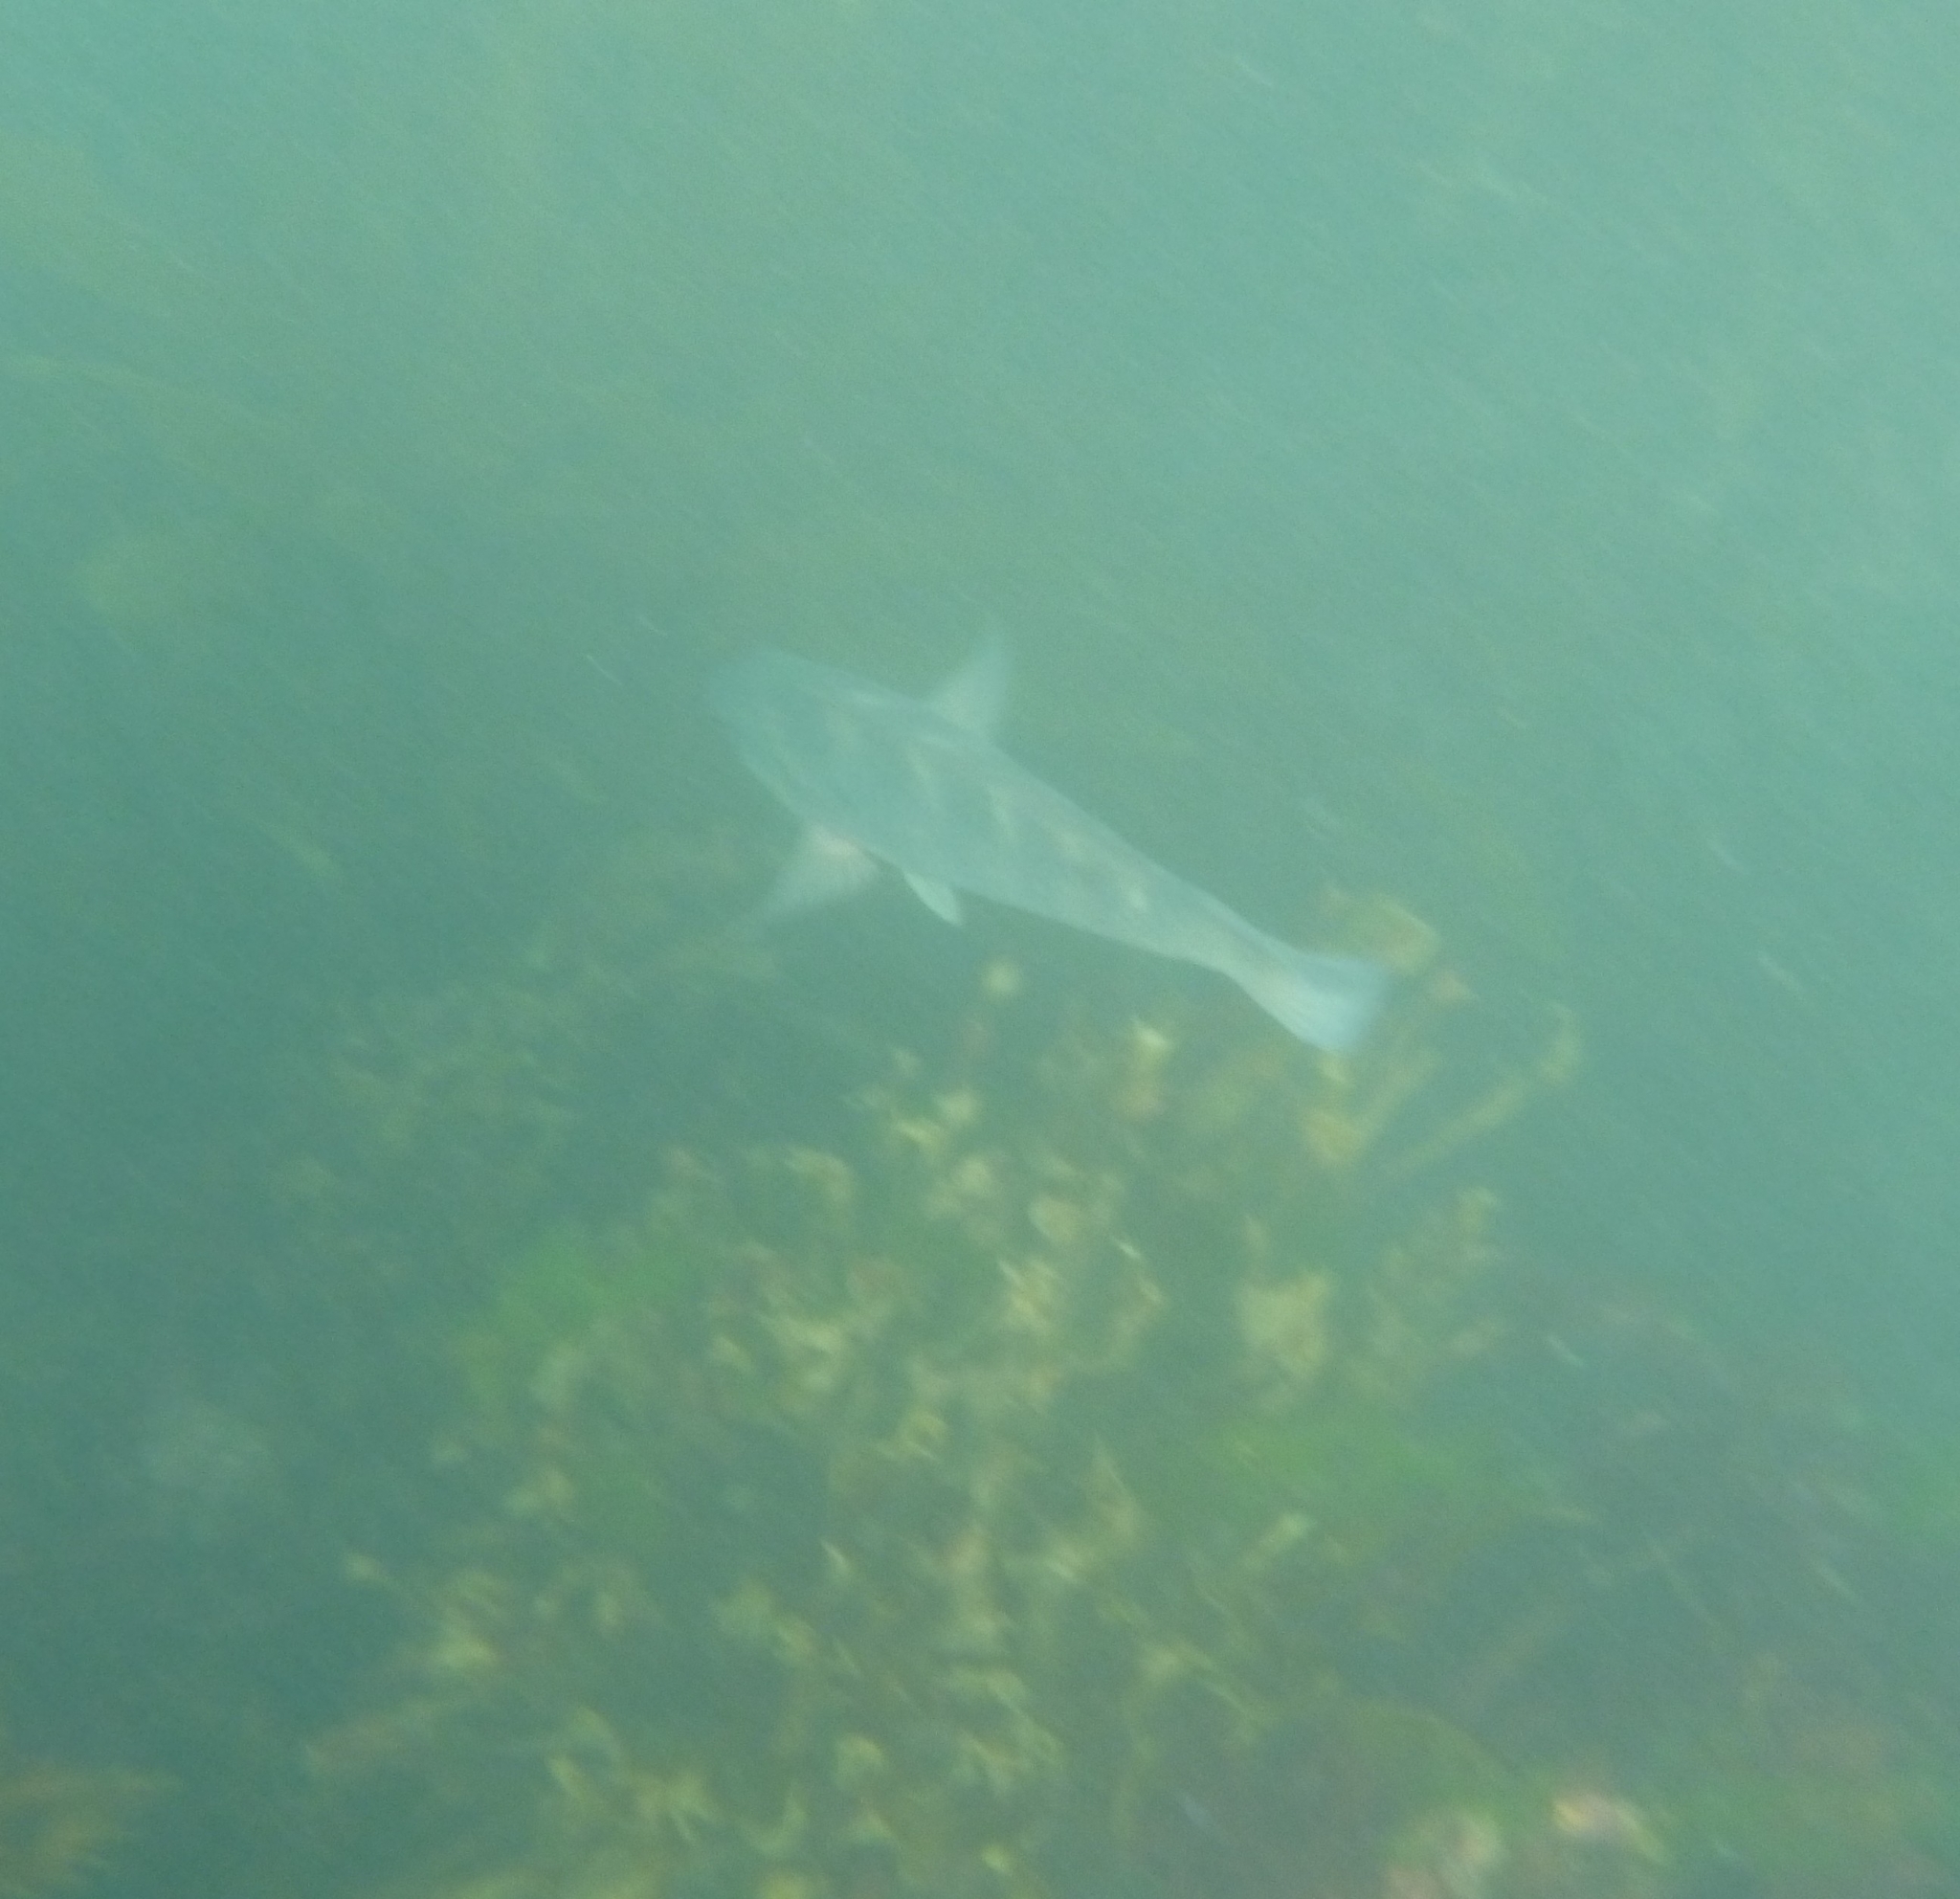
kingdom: Animalia
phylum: Chordata
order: Perciformes
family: Labridae
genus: Notolabrus
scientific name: Notolabrus fucicola
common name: Banded parrotfish
